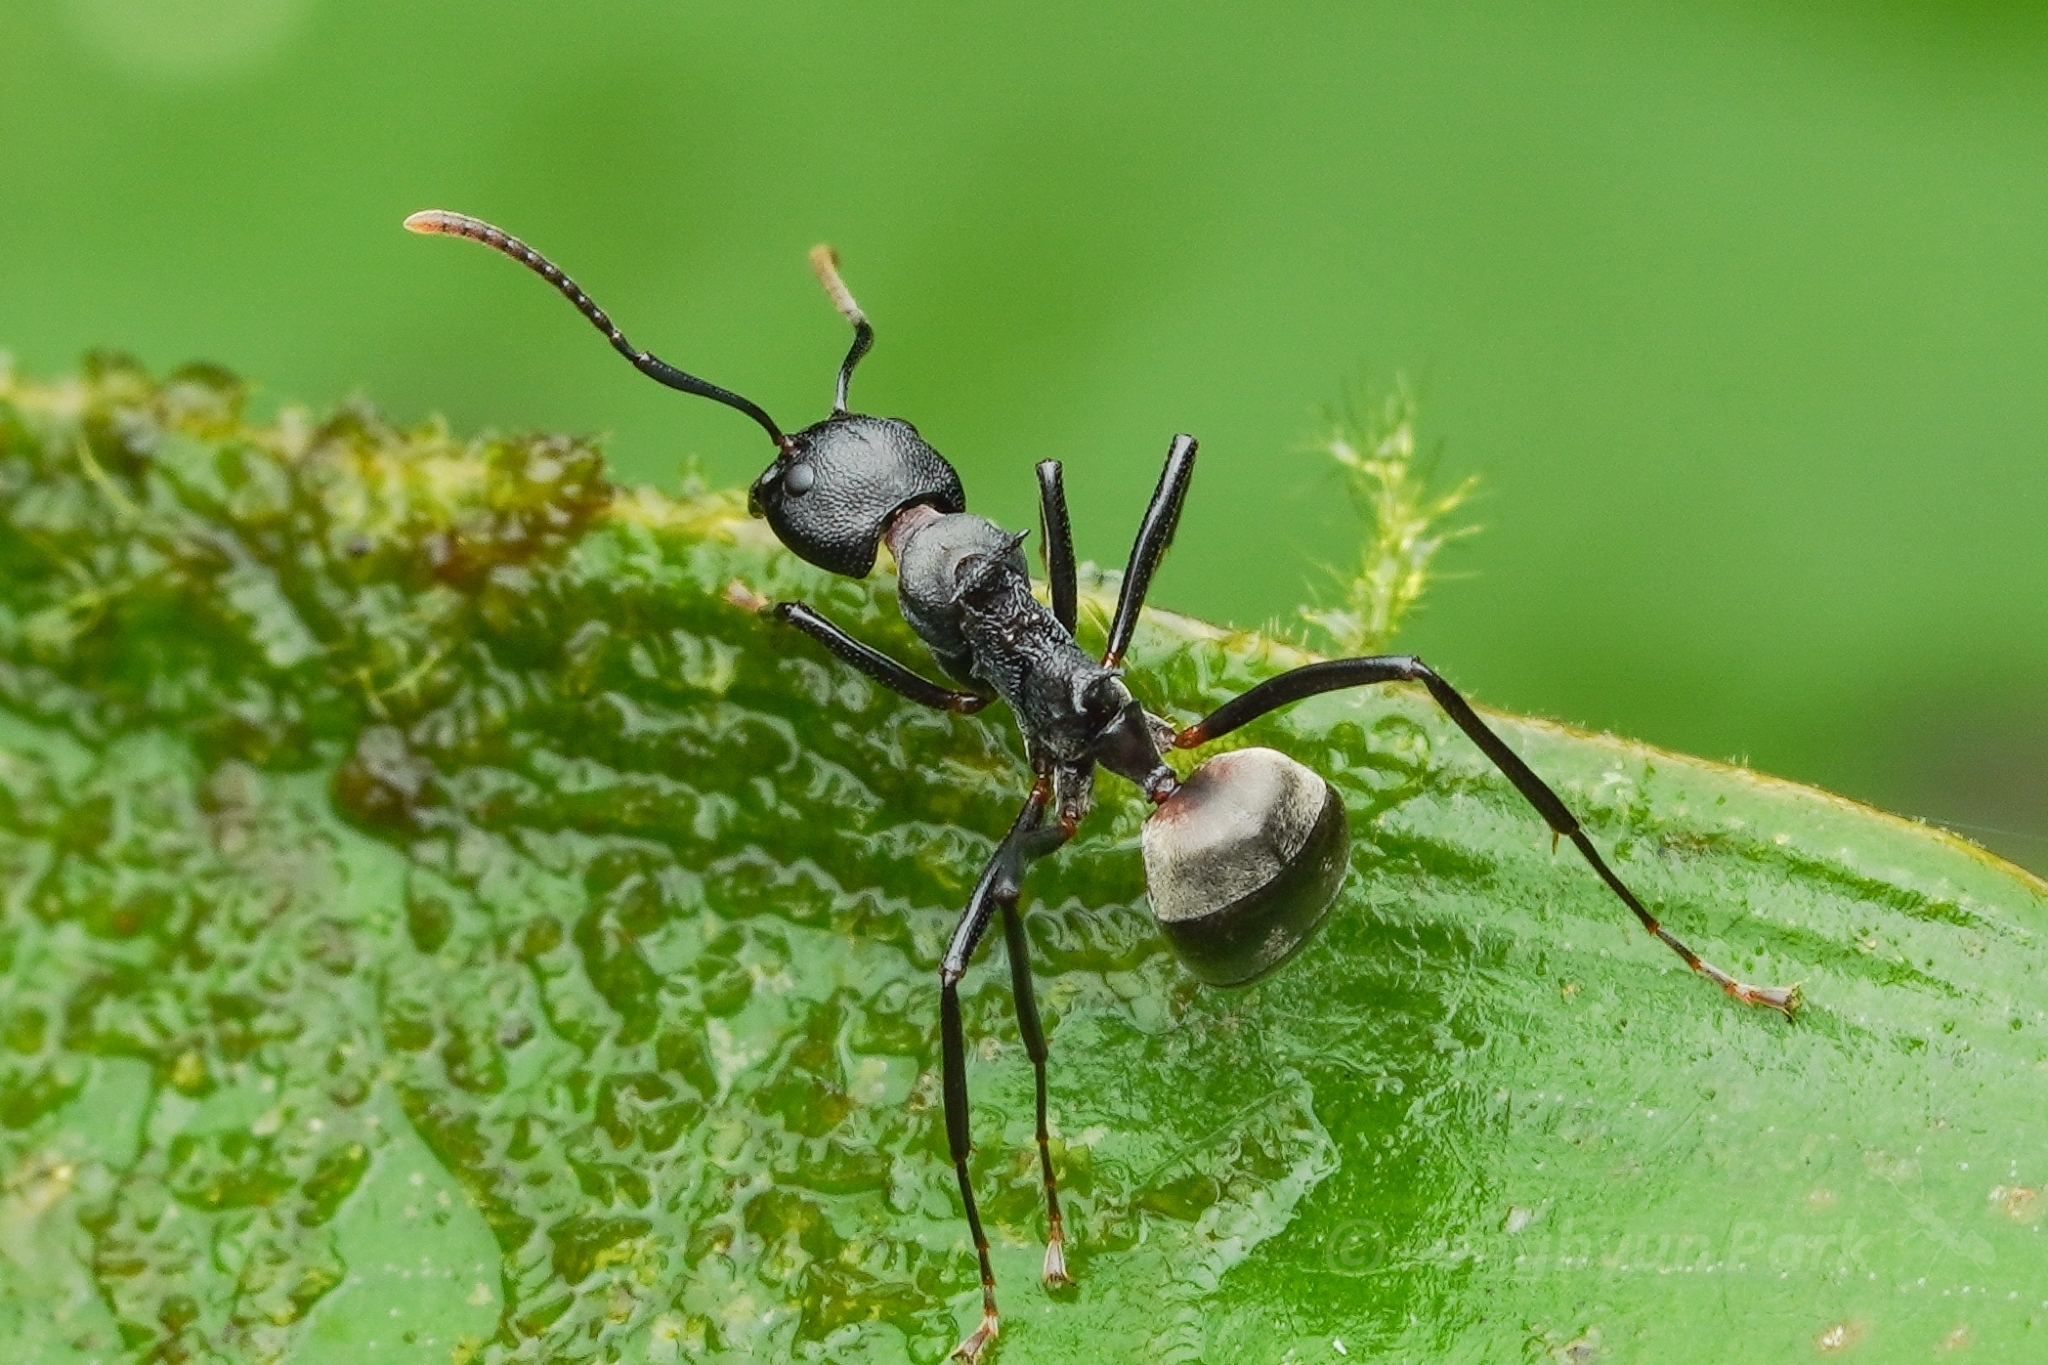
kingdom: Animalia
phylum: Arthropoda
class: Insecta
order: Hymenoptera
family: Formicidae
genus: Dolichoderus
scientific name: Dolichoderus cuspidatus
